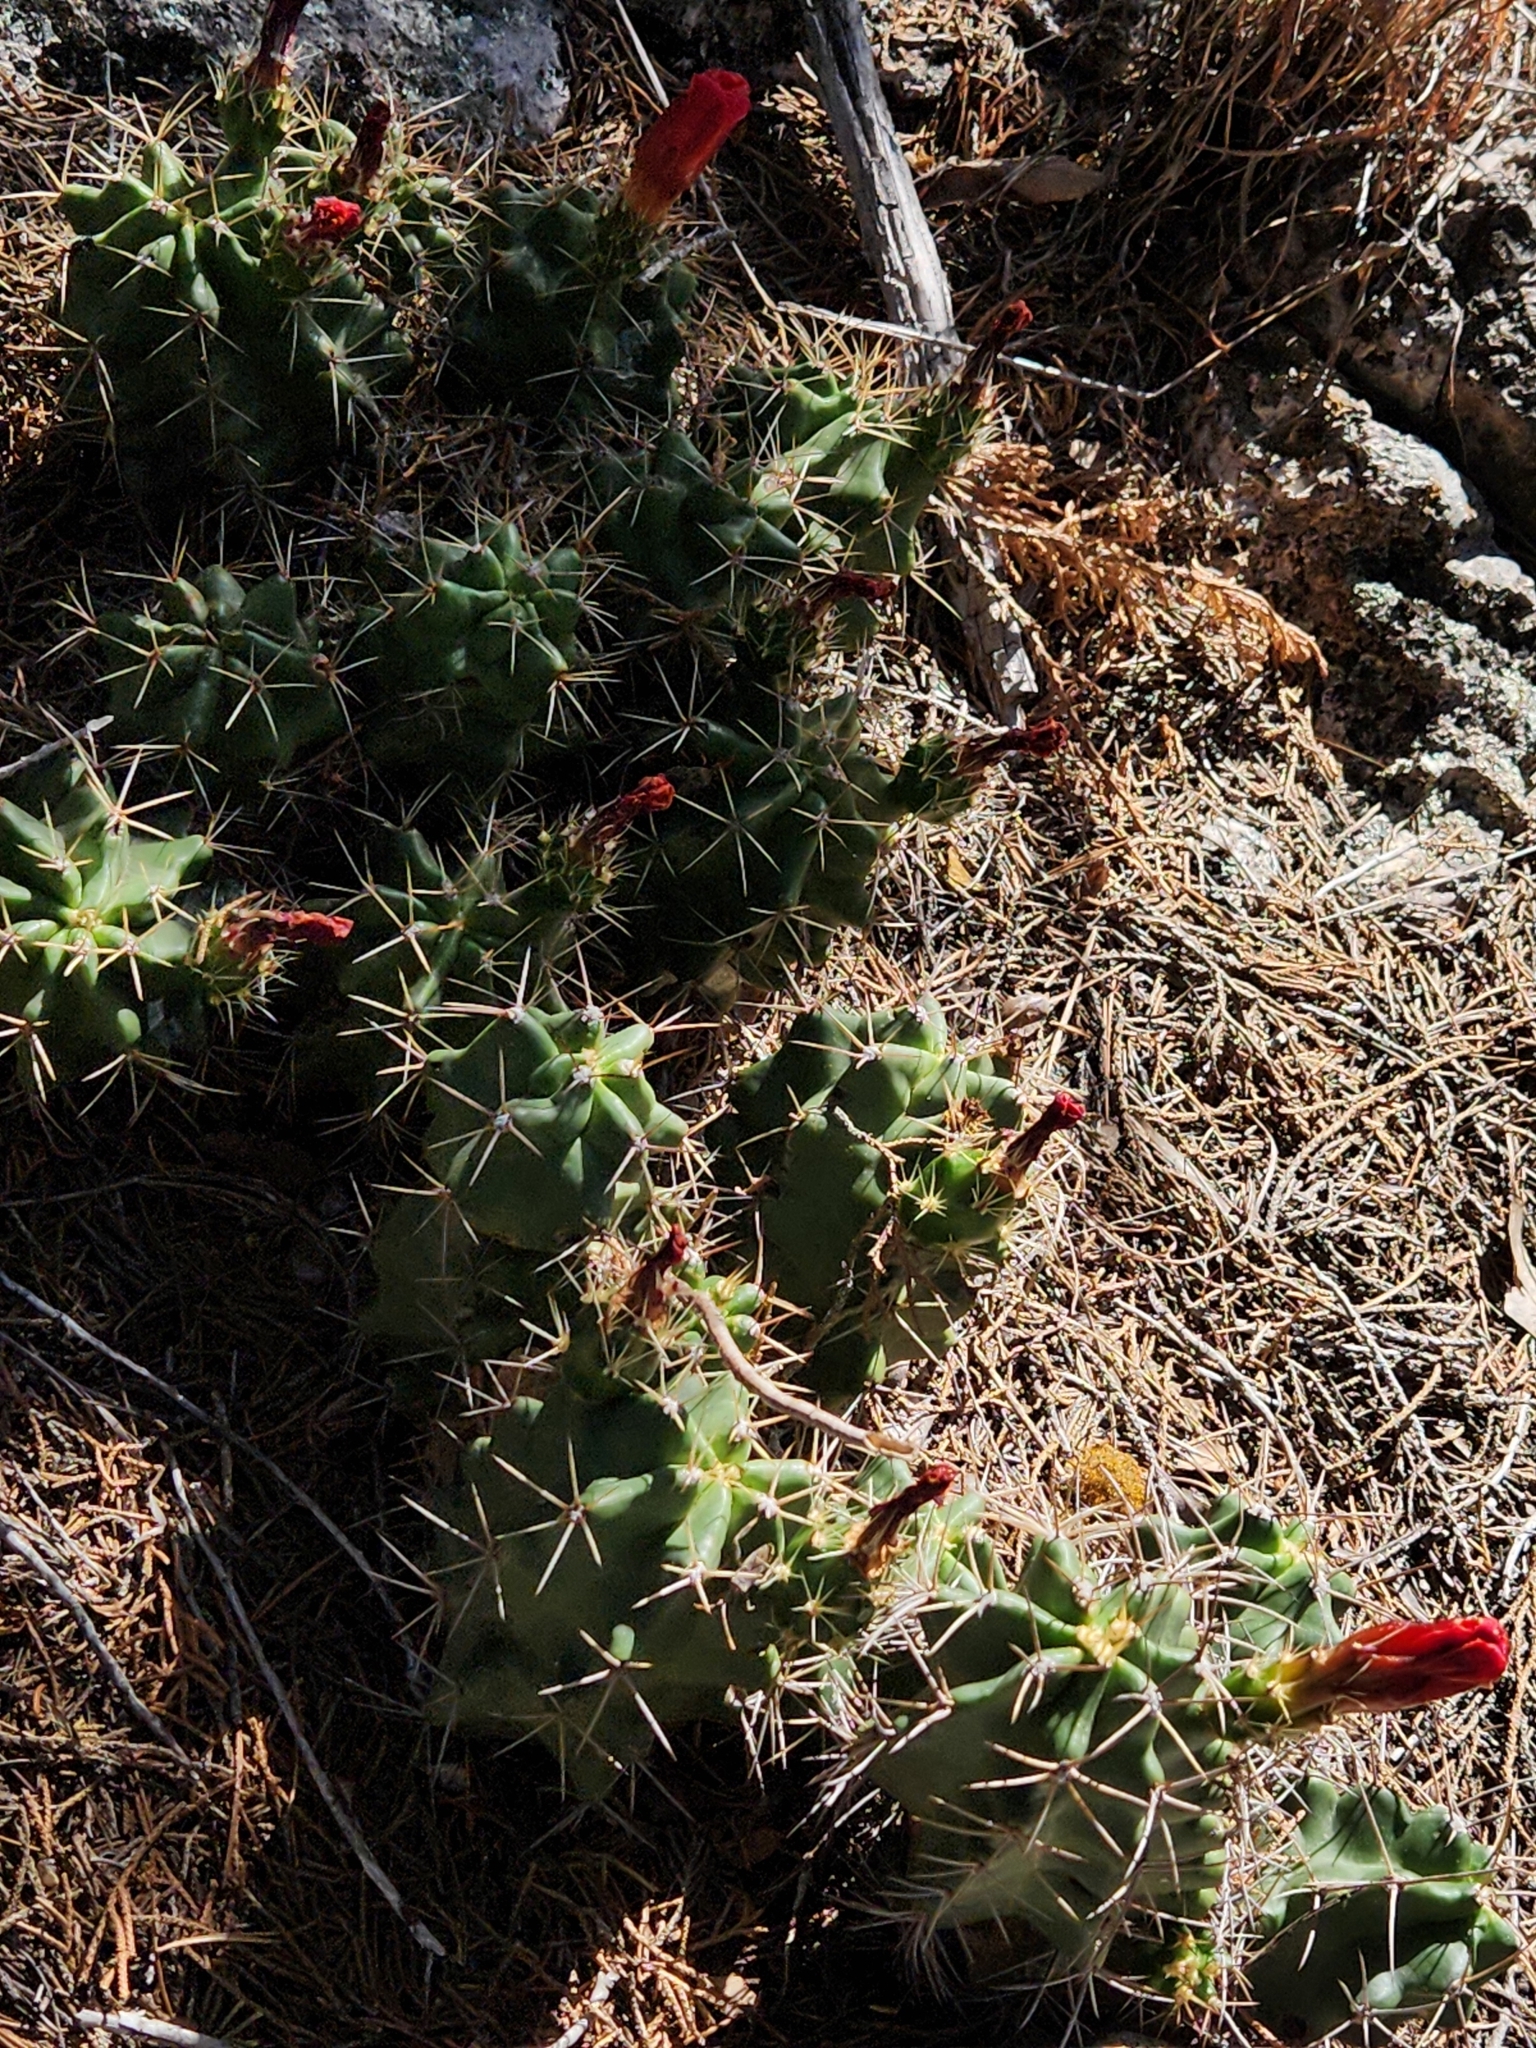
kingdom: Plantae
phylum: Tracheophyta
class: Magnoliopsida
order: Caryophyllales
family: Cactaceae
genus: Echinocereus
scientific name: Echinocereus coccineus
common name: Scarlet hedgehog cactus
